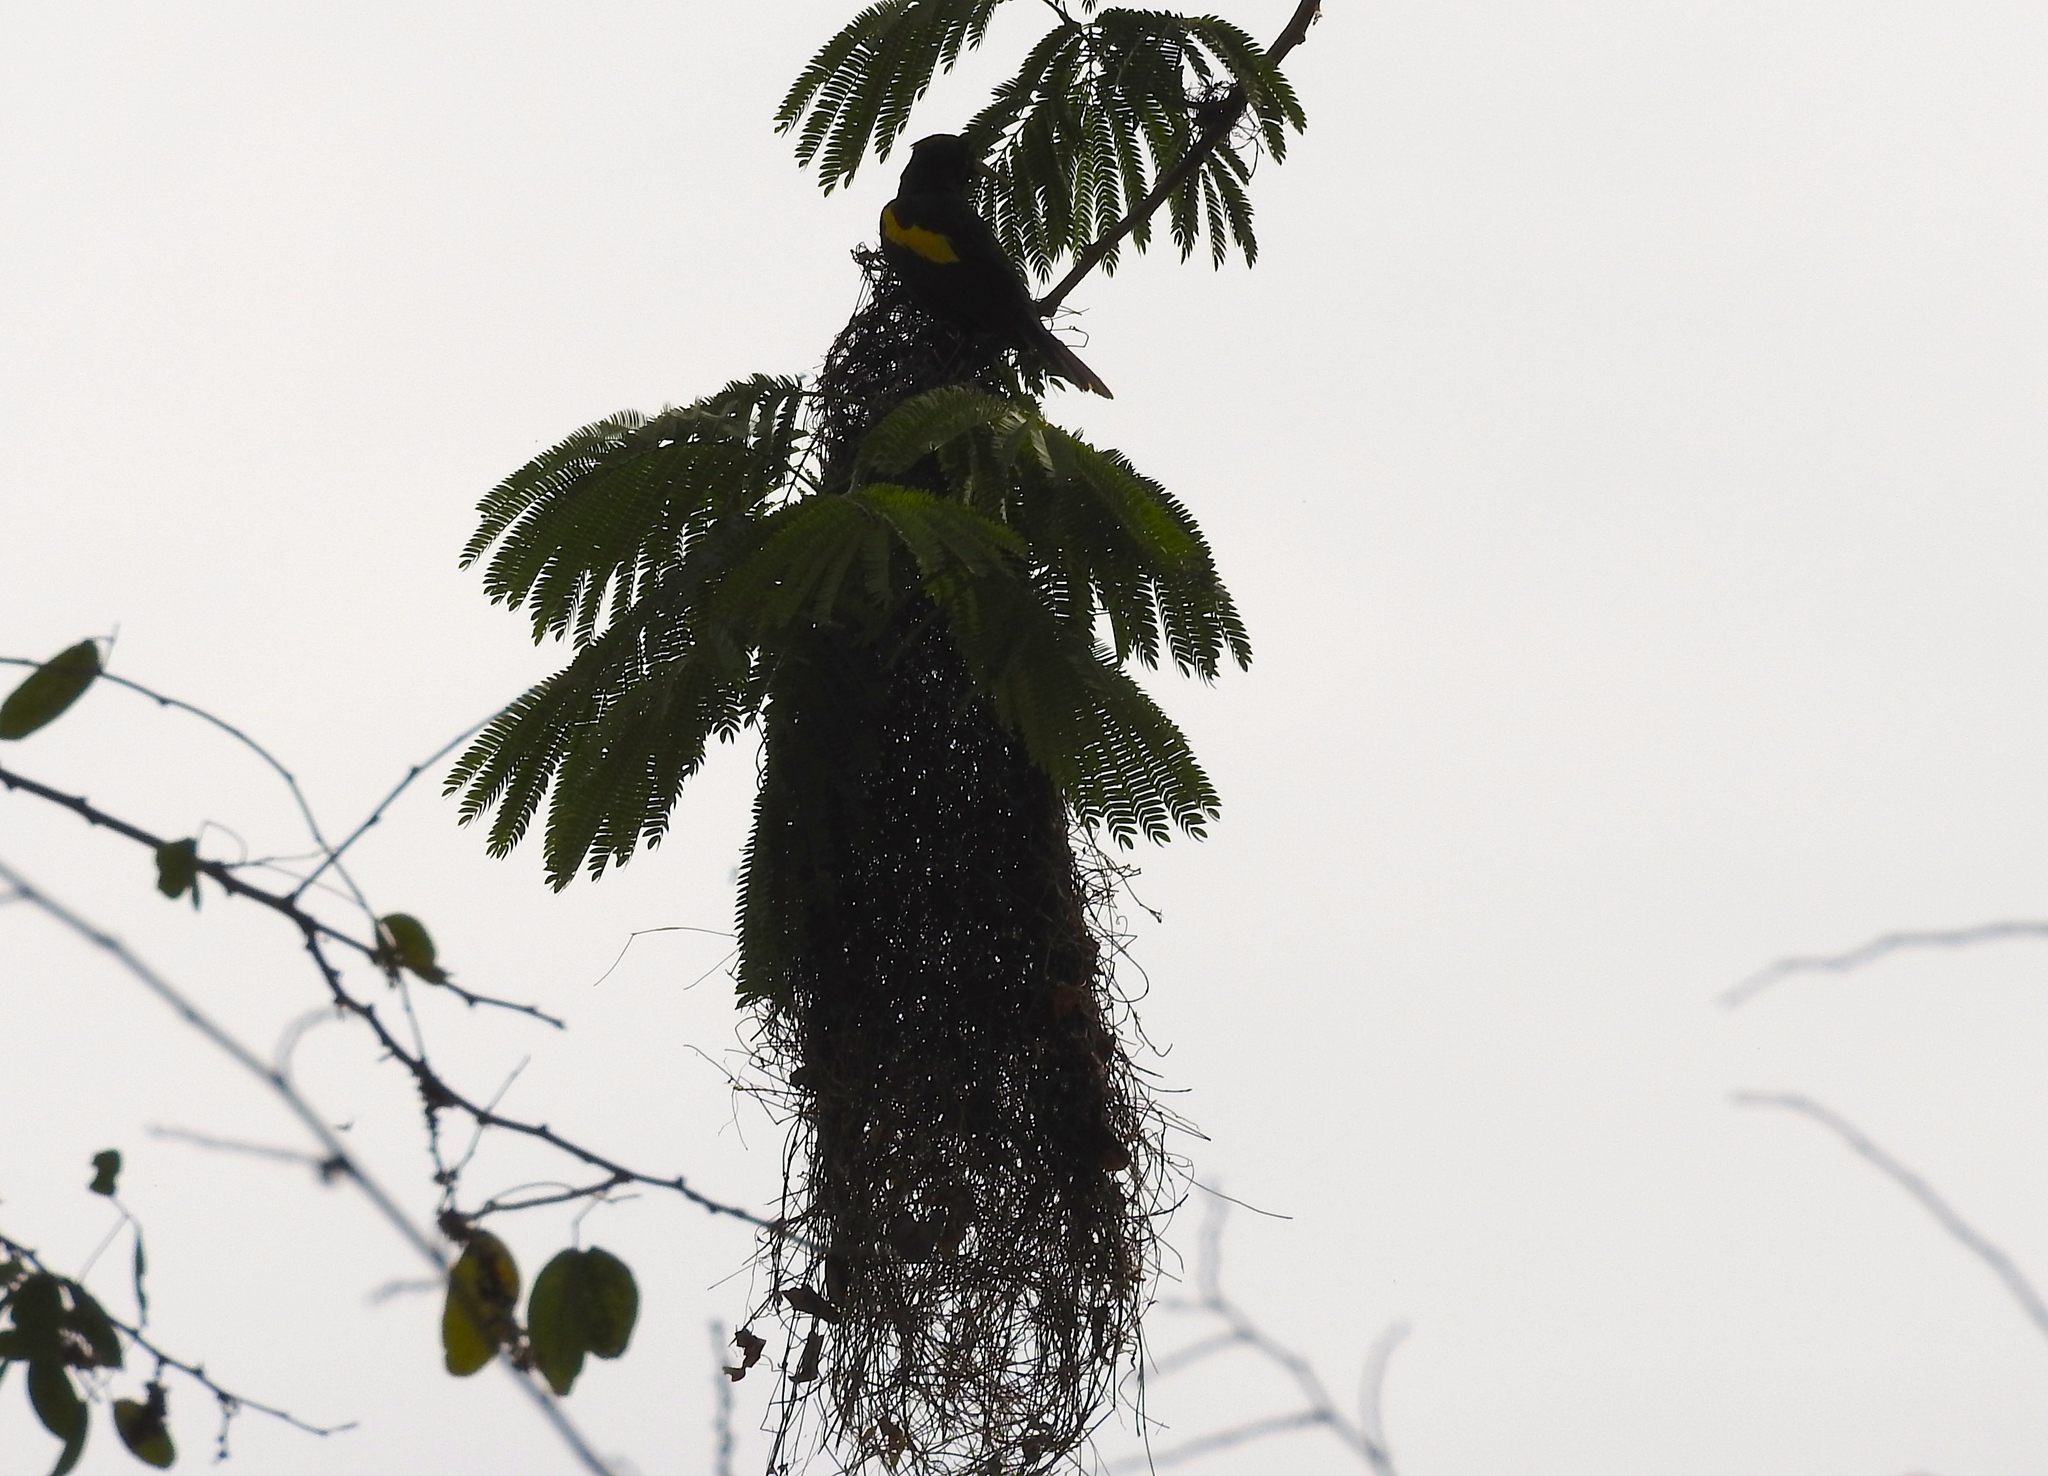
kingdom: Animalia
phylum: Chordata
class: Aves
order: Passeriformes
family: Icteridae
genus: Cacicus
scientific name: Cacicus melanicterus
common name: Yellow-winged cacique
